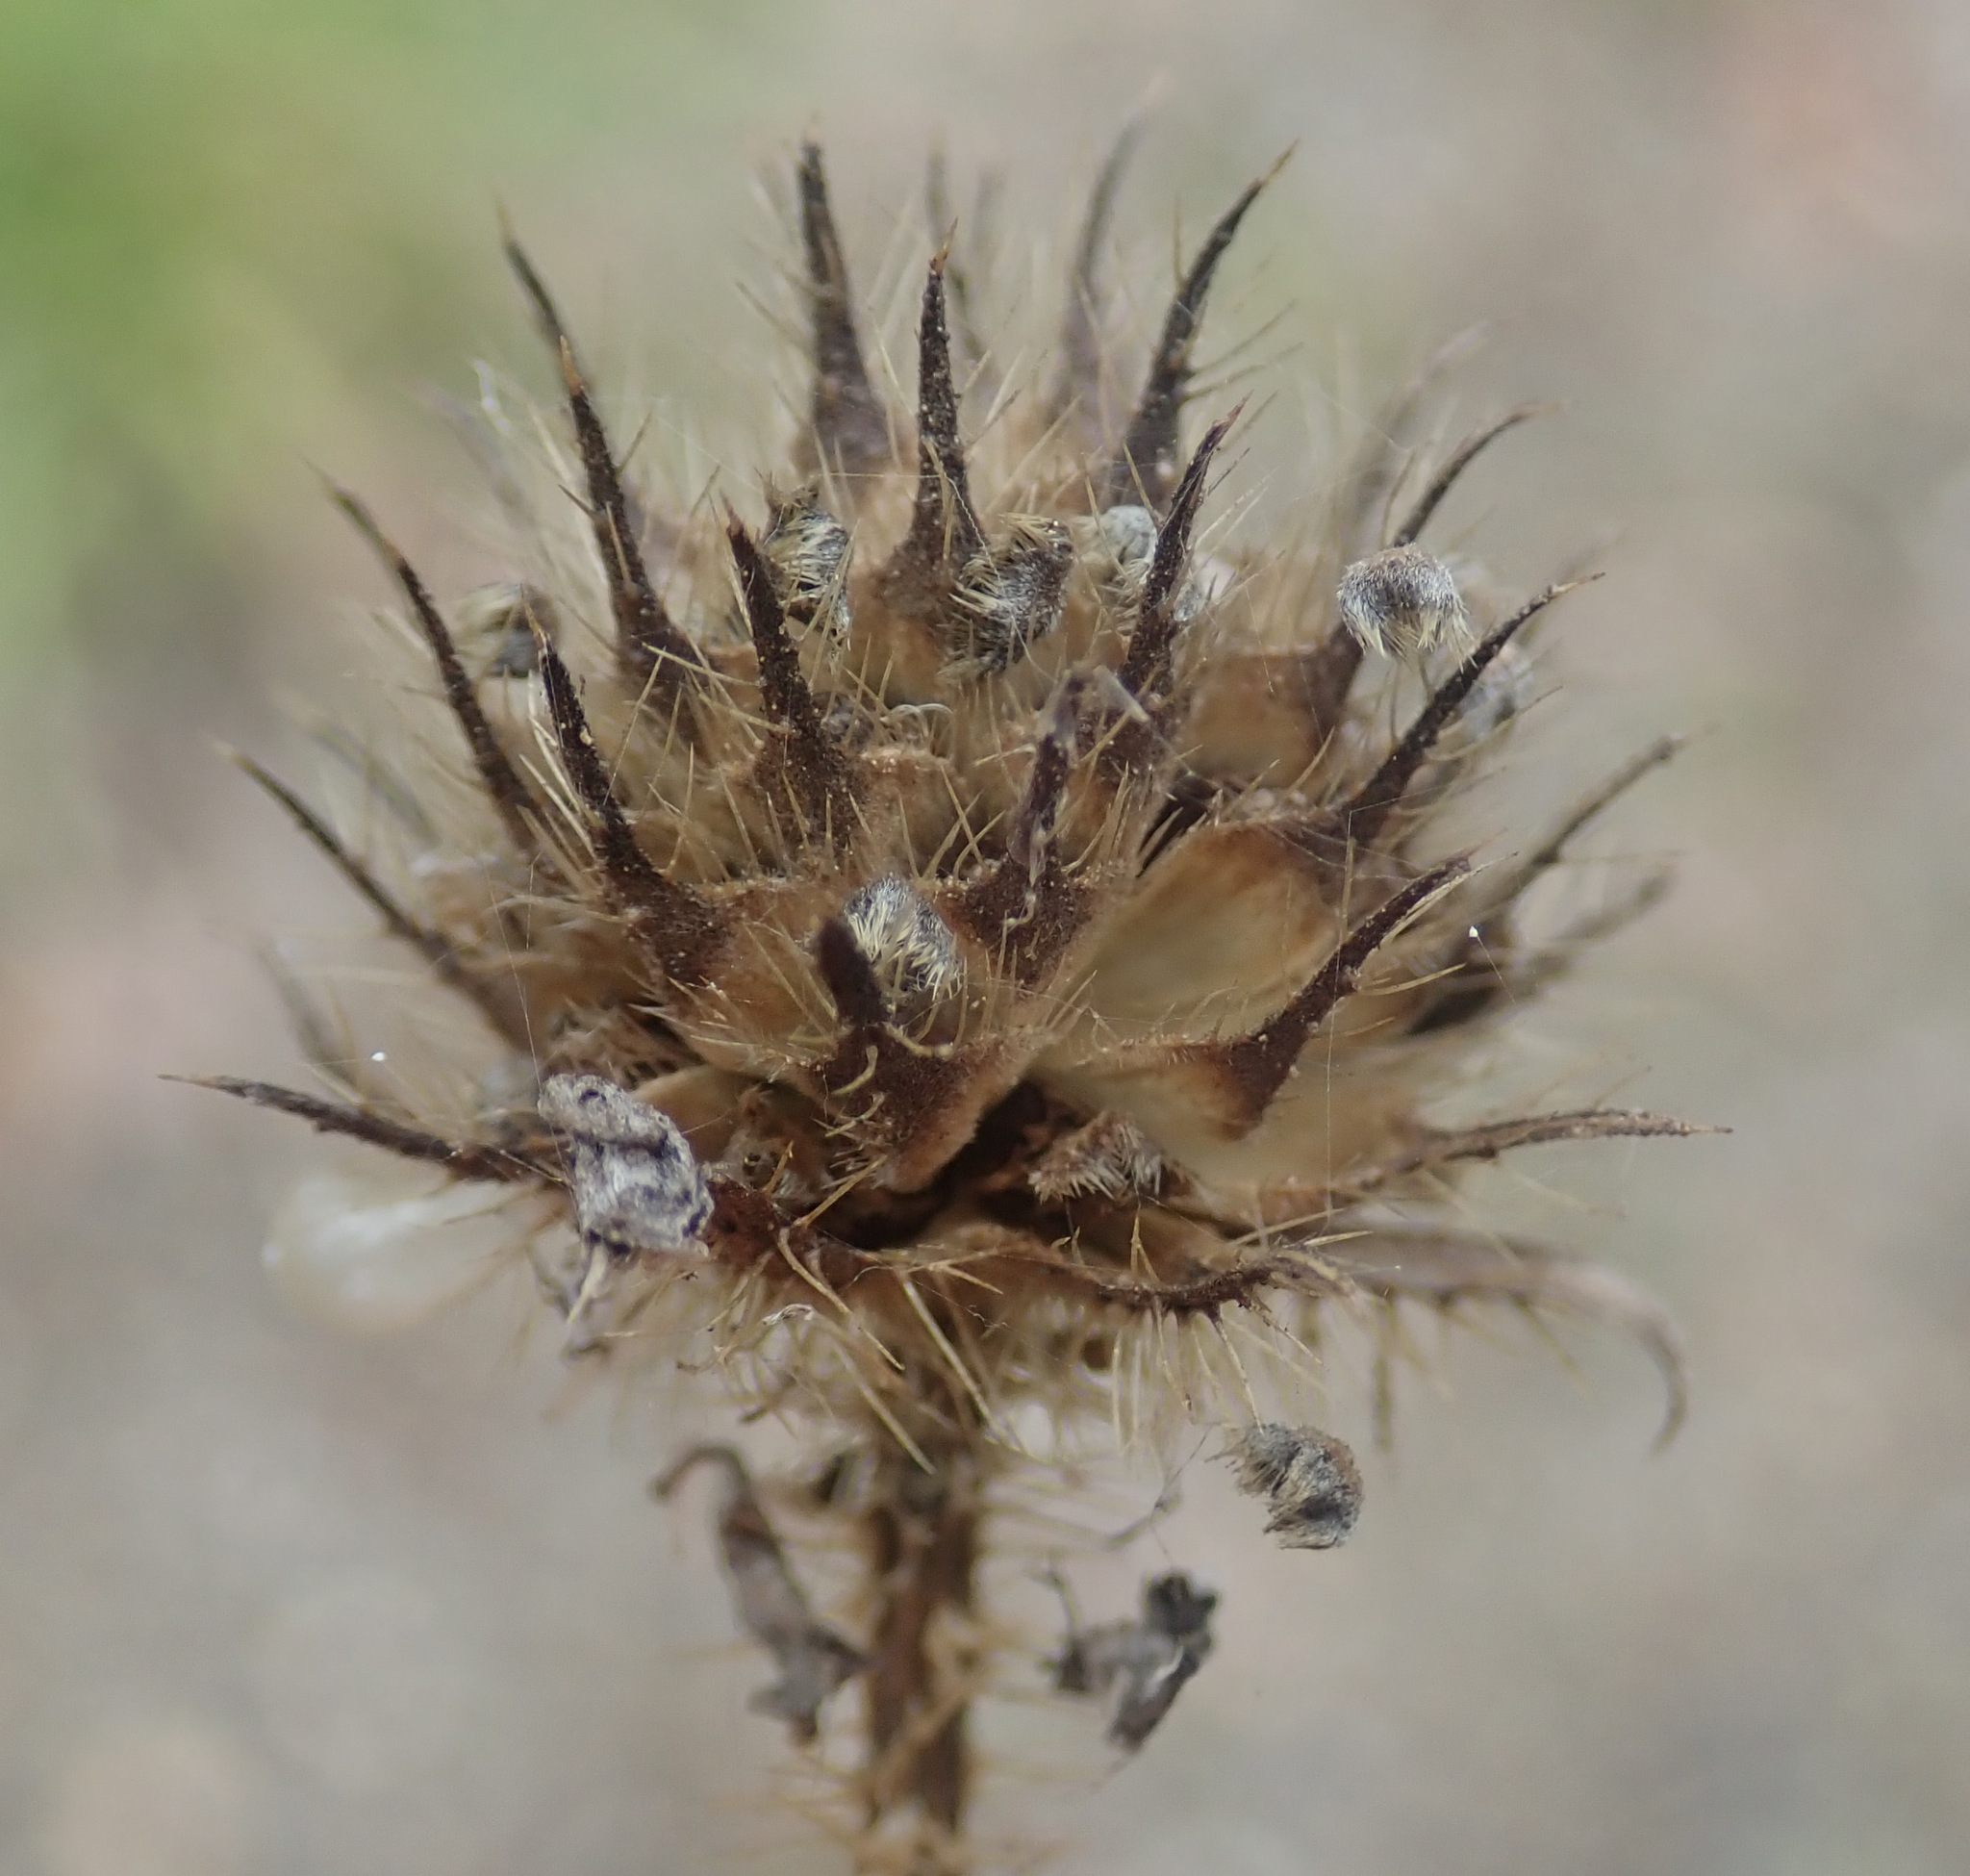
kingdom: Plantae
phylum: Tracheophyta
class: Magnoliopsida
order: Dipsacales
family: Caprifoliaceae
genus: Dipsacus
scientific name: Dipsacus pilosus
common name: Small teasel
